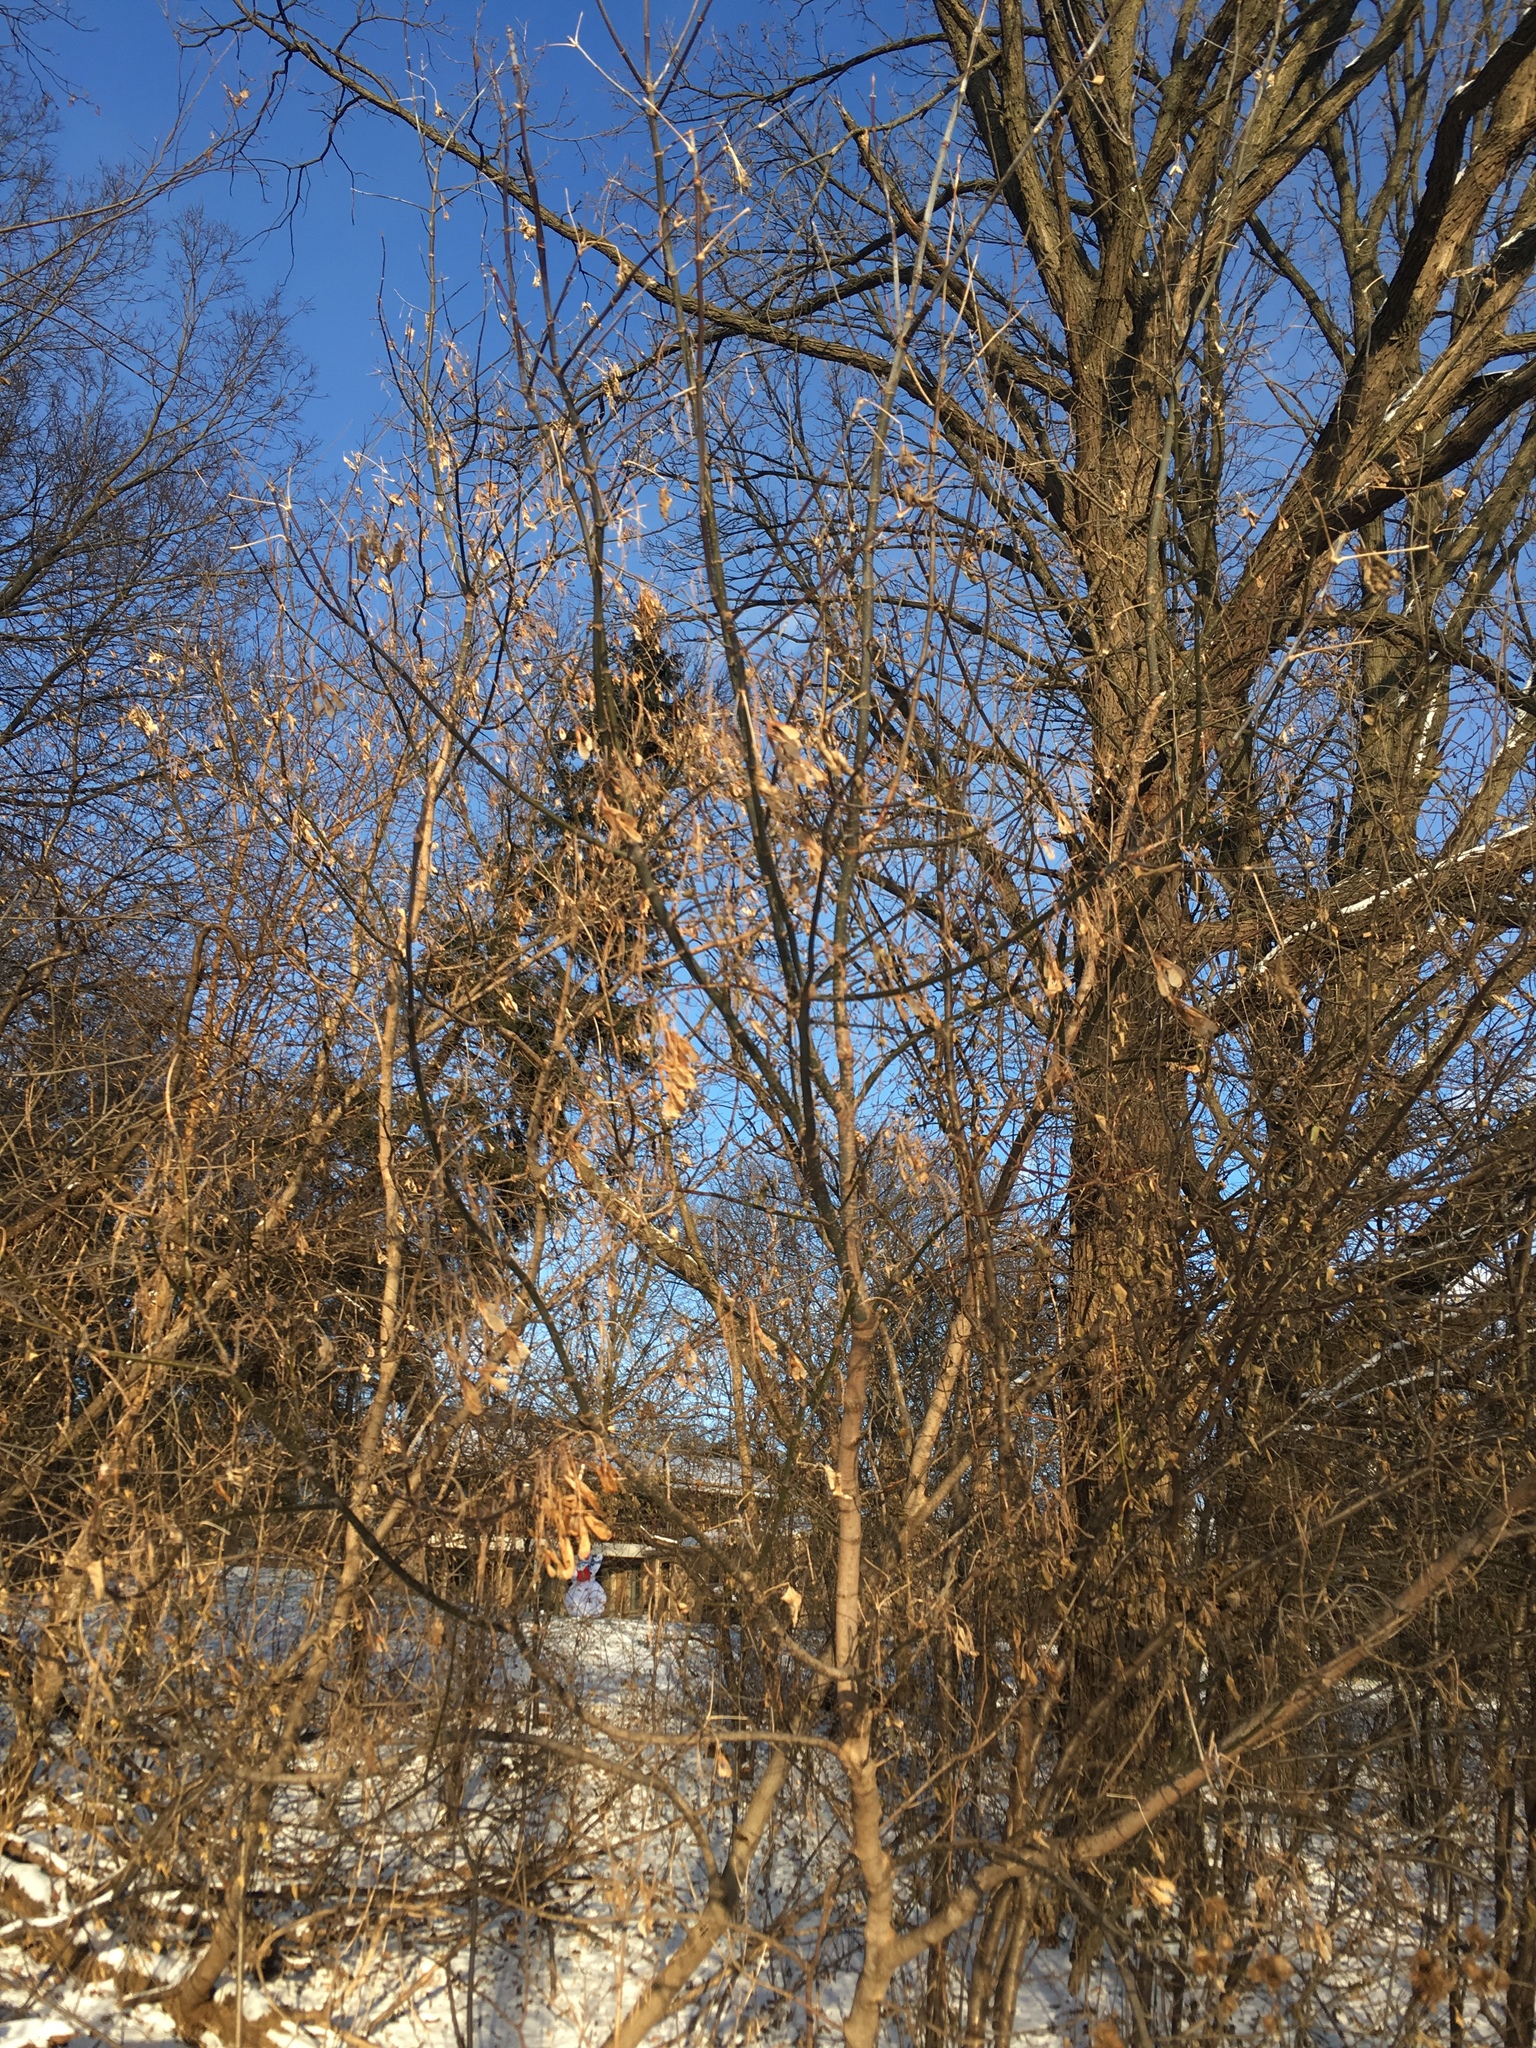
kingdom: Plantae
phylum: Tracheophyta
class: Magnoliopsida
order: Sapindales
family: Sapindaceae
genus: Acer
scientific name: Acer negundo
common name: Ashleaf maple
